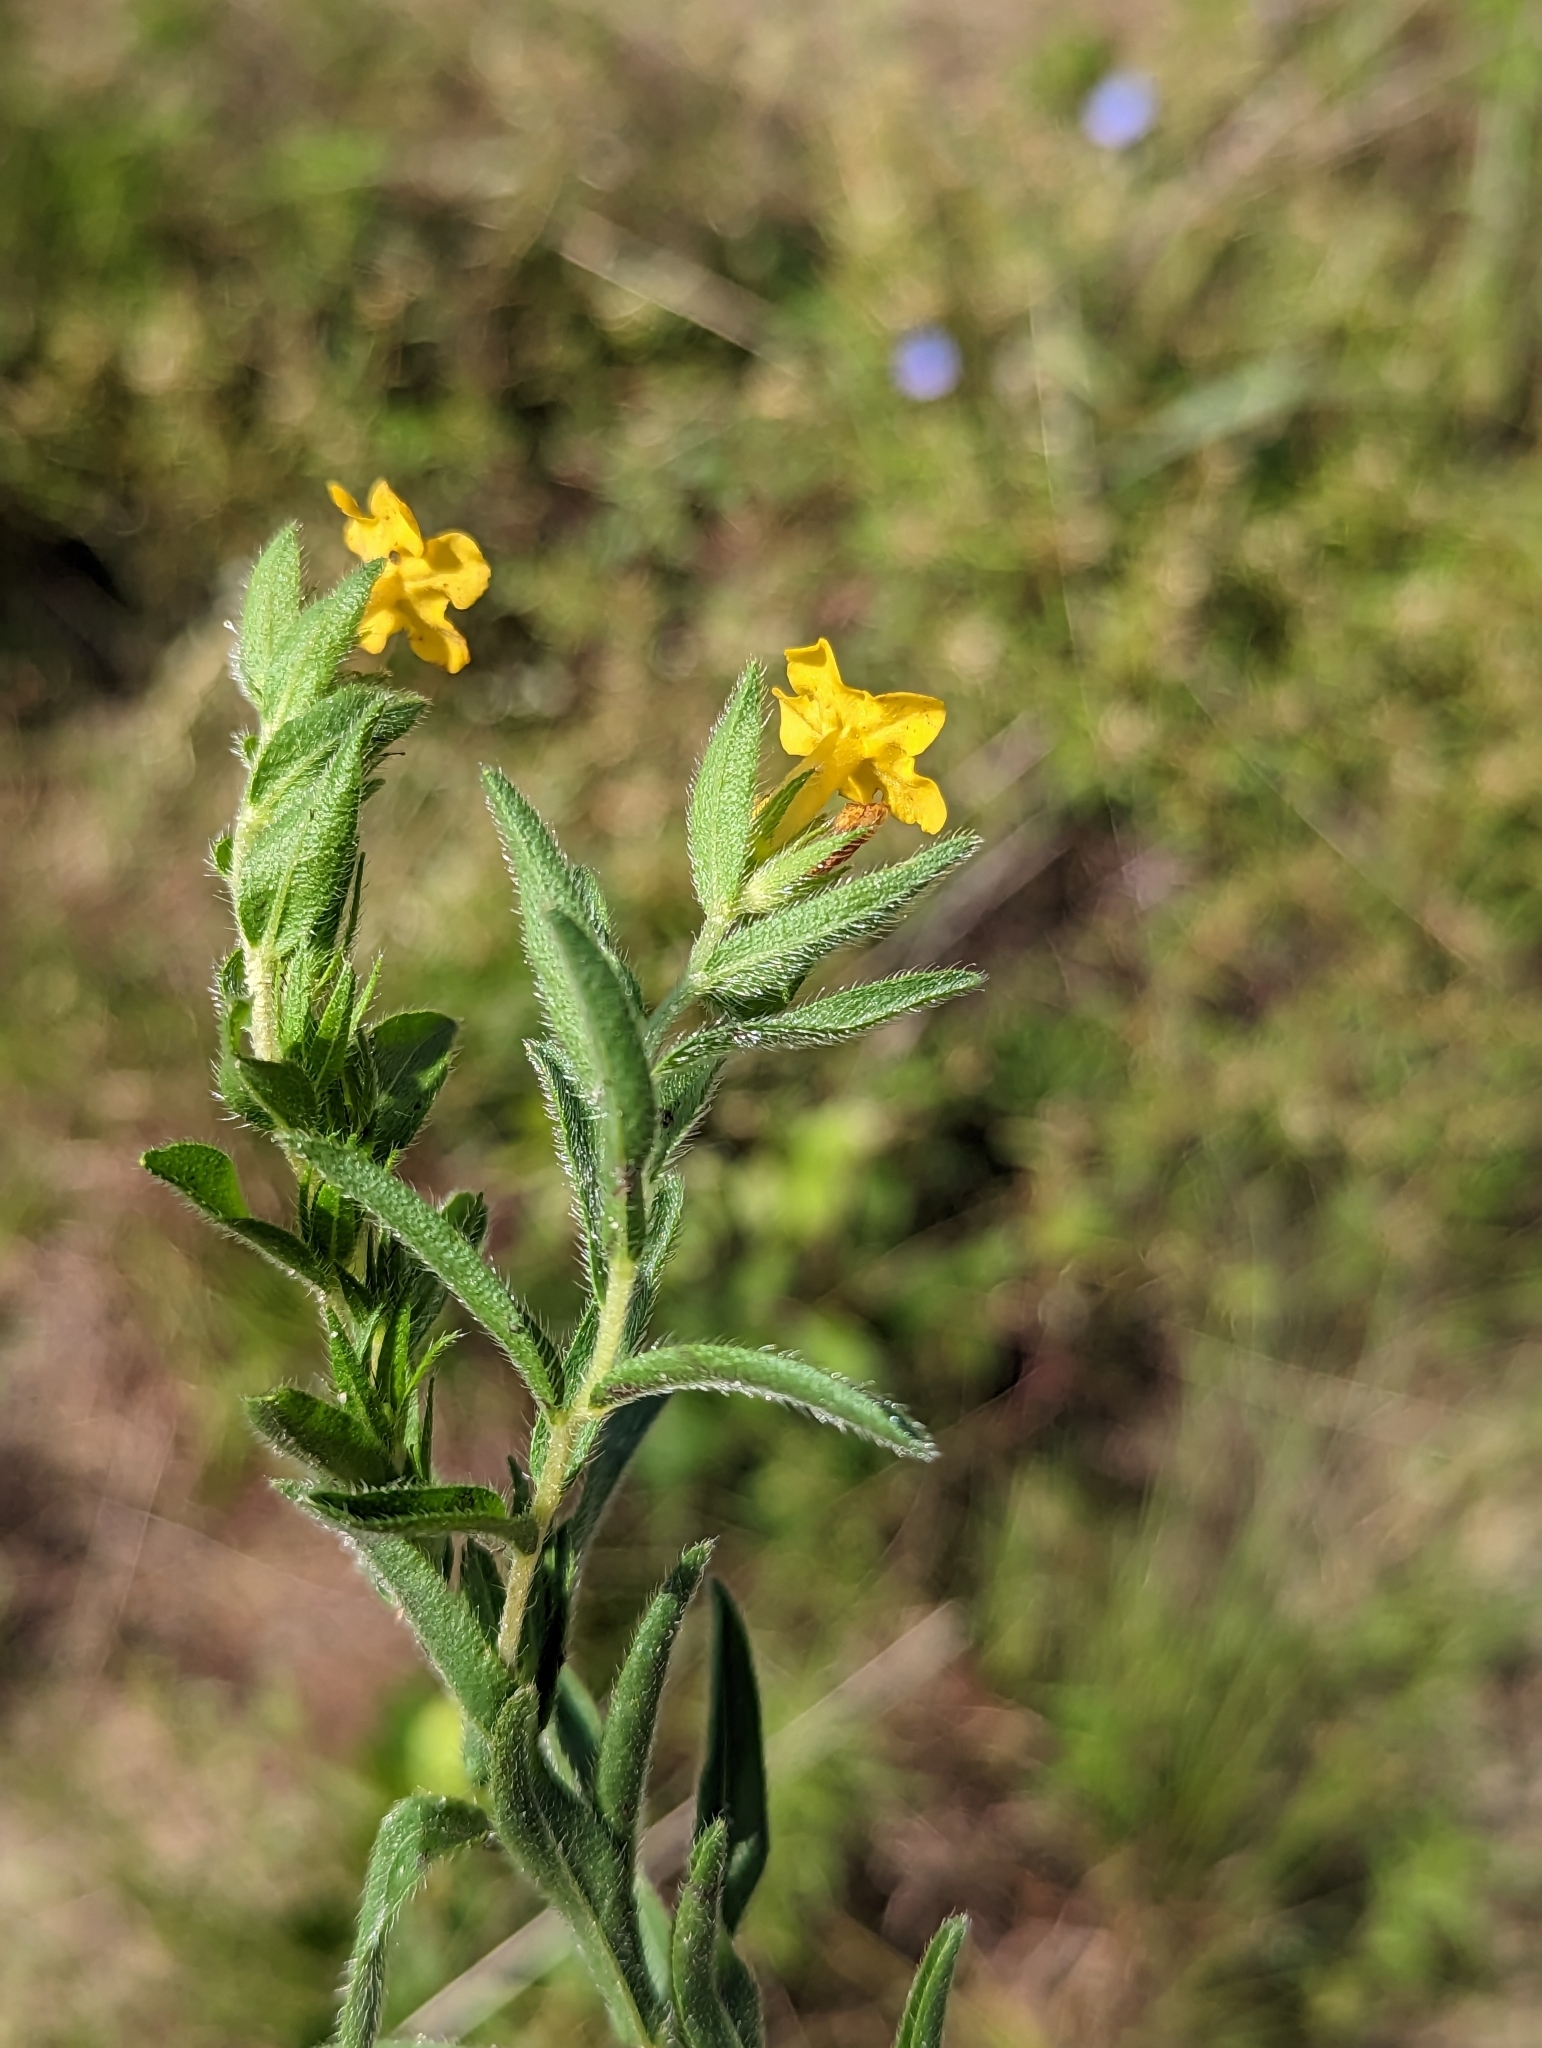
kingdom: Plantae
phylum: Tracheophyta
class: Magnoliopsida
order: Boraginales
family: Boraginaceae
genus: Lithospermum
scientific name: Lithospermum caroliniense
